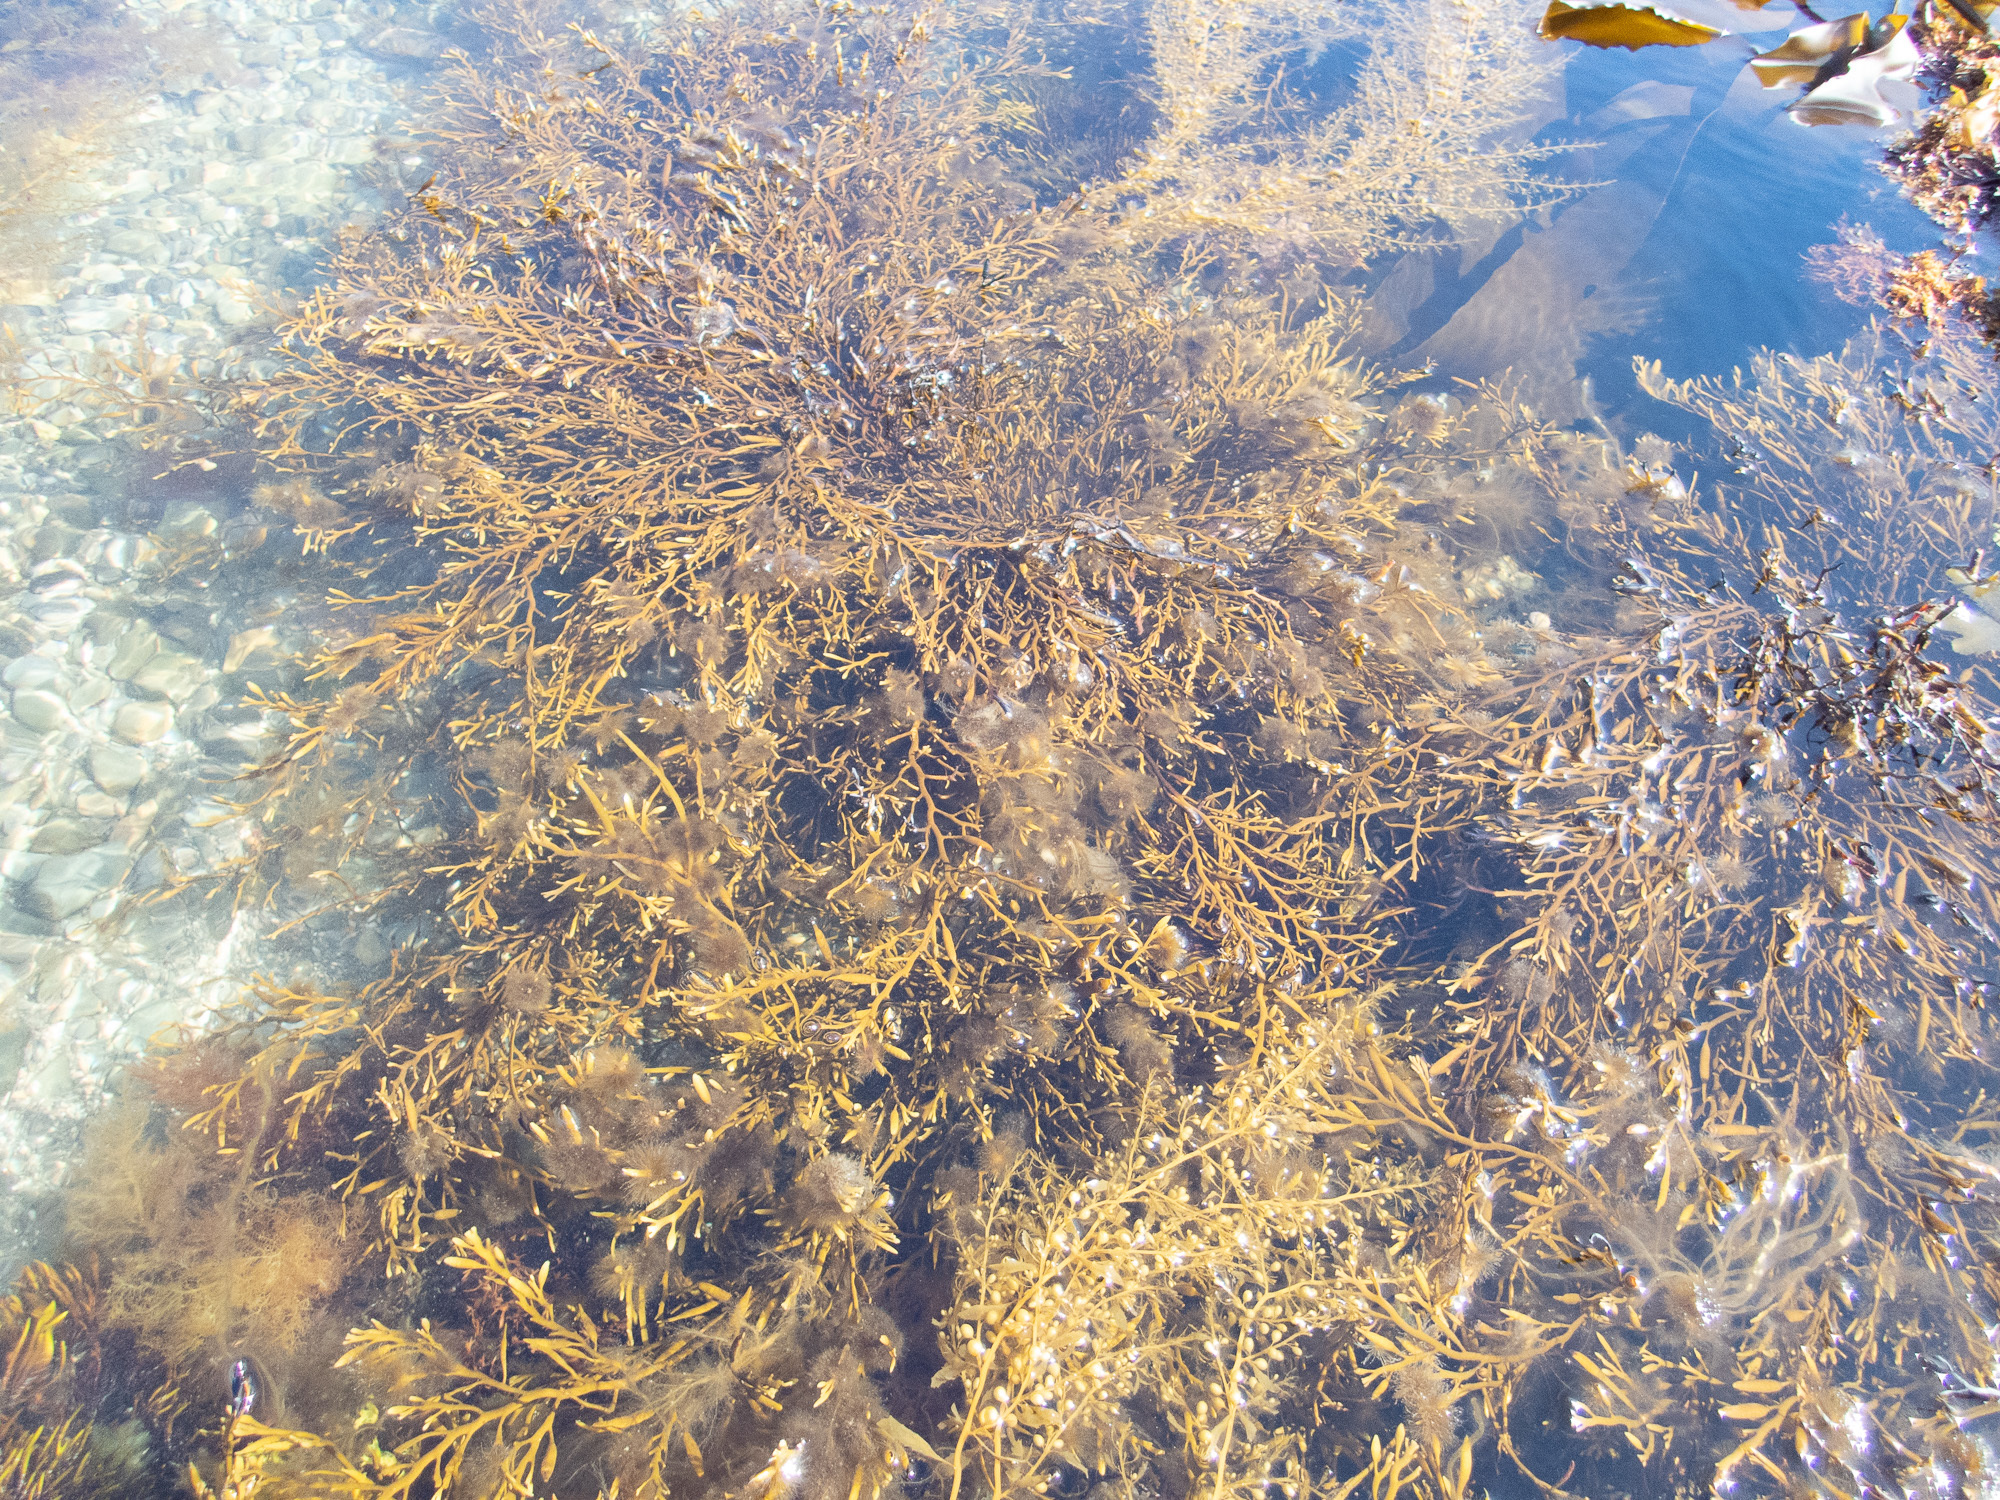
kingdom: Chromista
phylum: Ochrophyta
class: Phaeophyceae
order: Fucales
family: Sargassaceae
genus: Halidrys
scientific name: Halidrys siliquosa
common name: Sea oak
